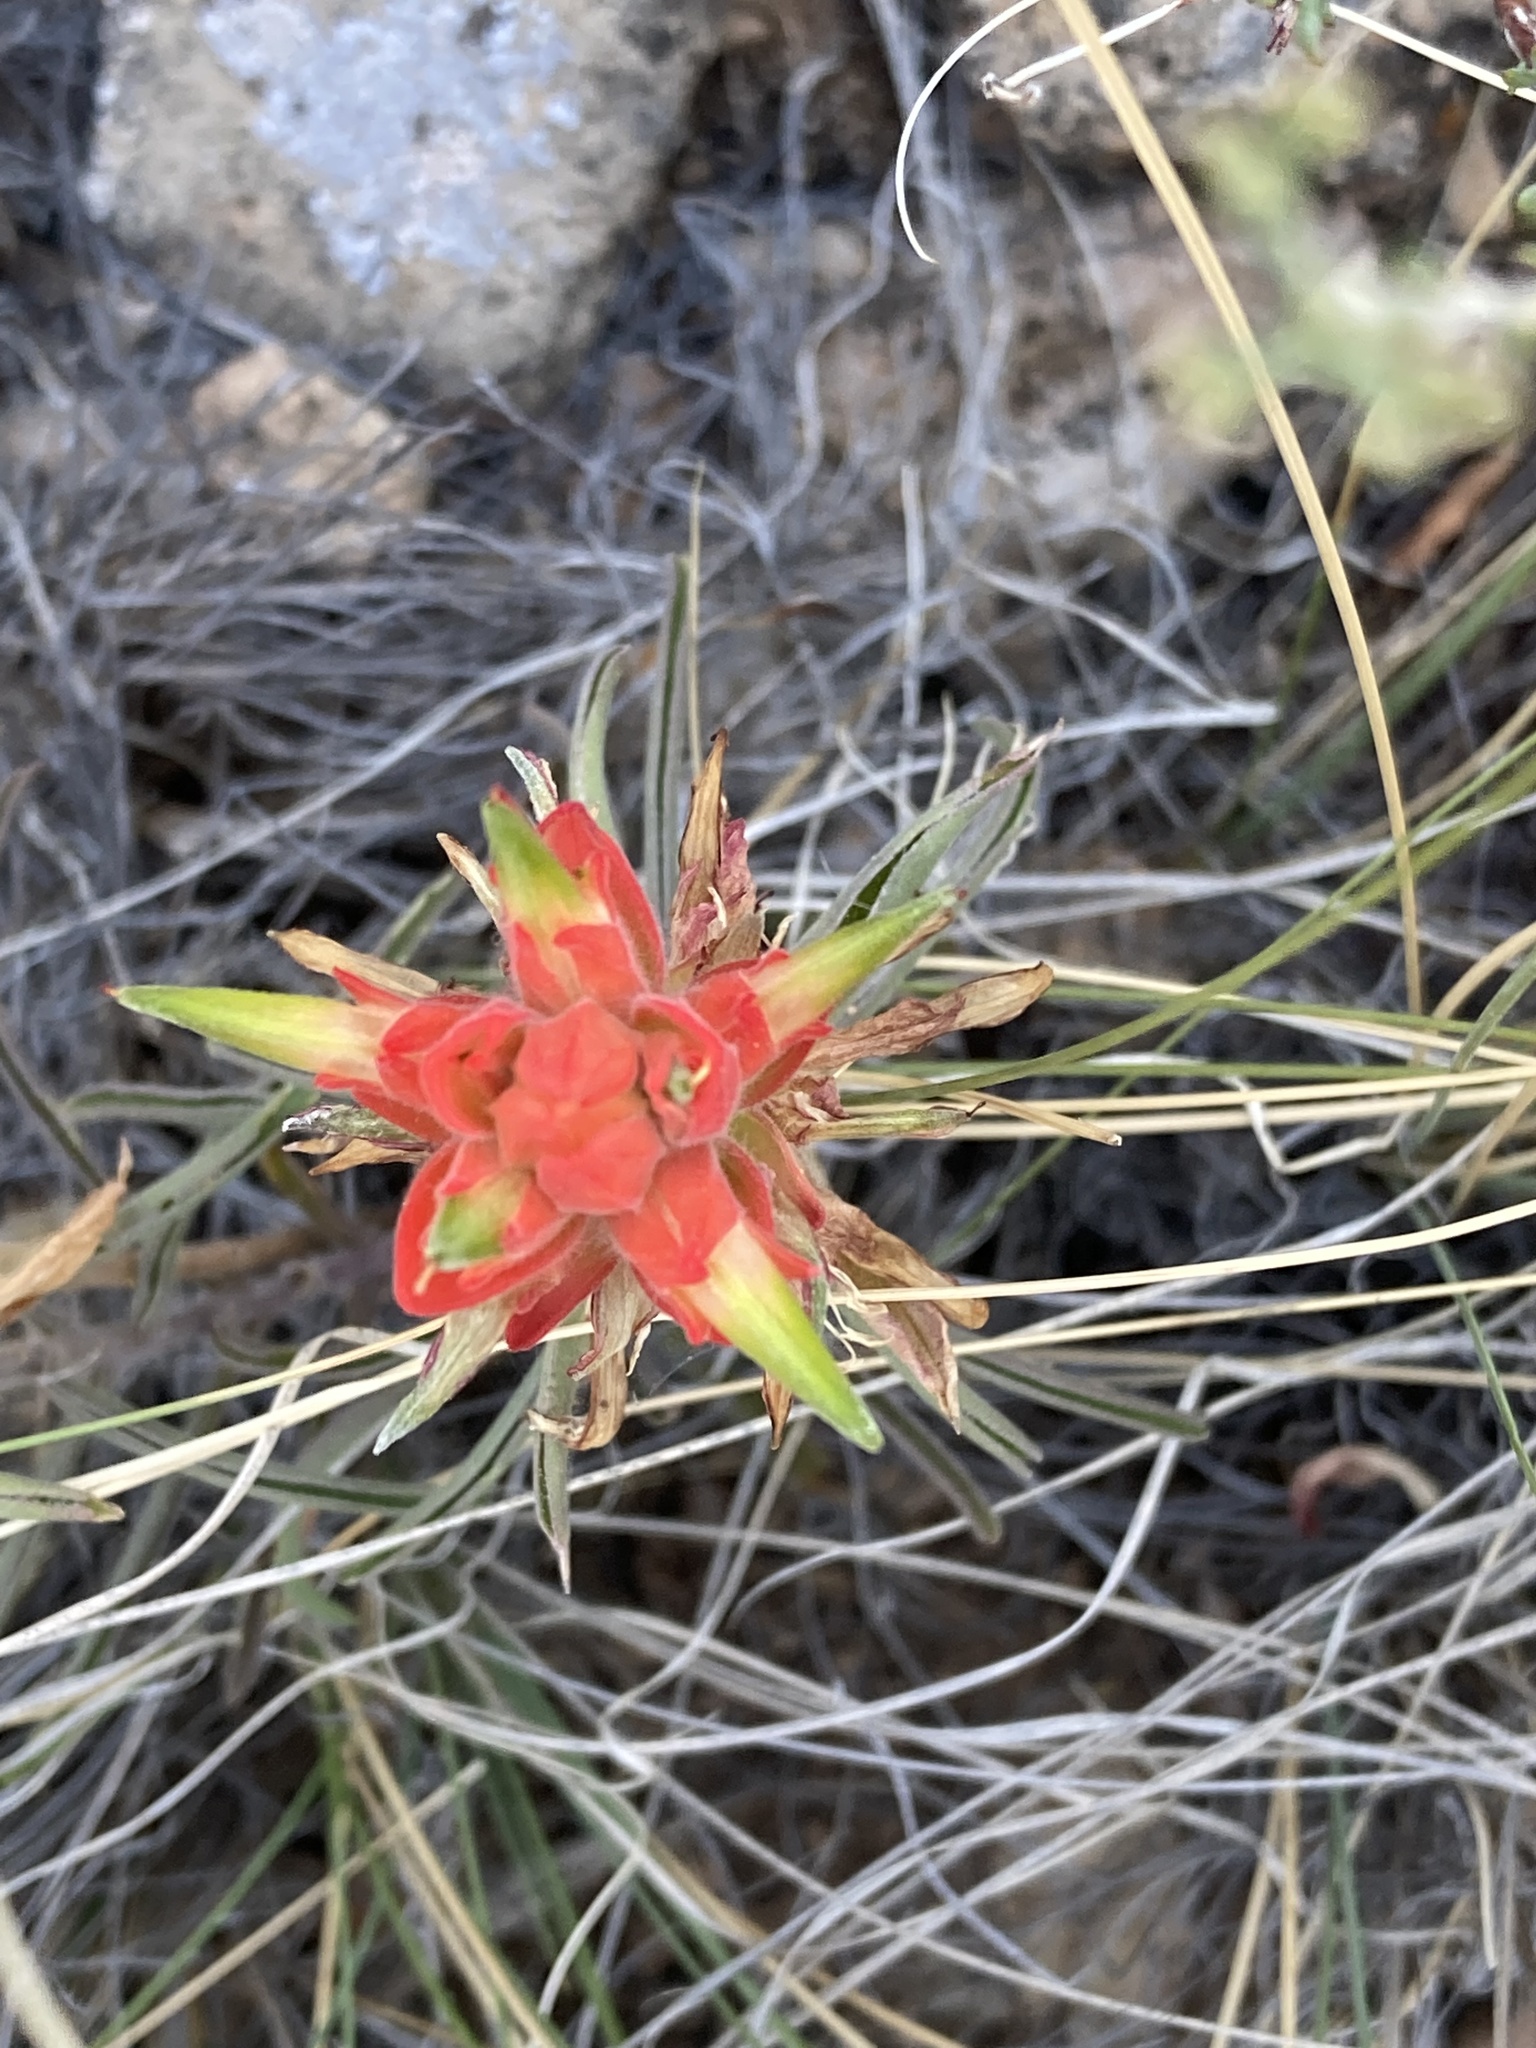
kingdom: Plantae
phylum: Tracheophyta
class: Magnoliopsida
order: Lamiales
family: Orobanchaceae
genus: Castilleja
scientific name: Castilleja integra
